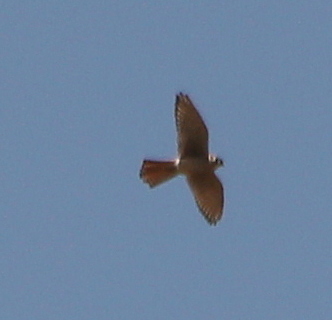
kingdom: Animalia
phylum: Chordata
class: Aves
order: Falconiformes
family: Falconidae
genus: Falco
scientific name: Falco sparverius
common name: American kestrel
